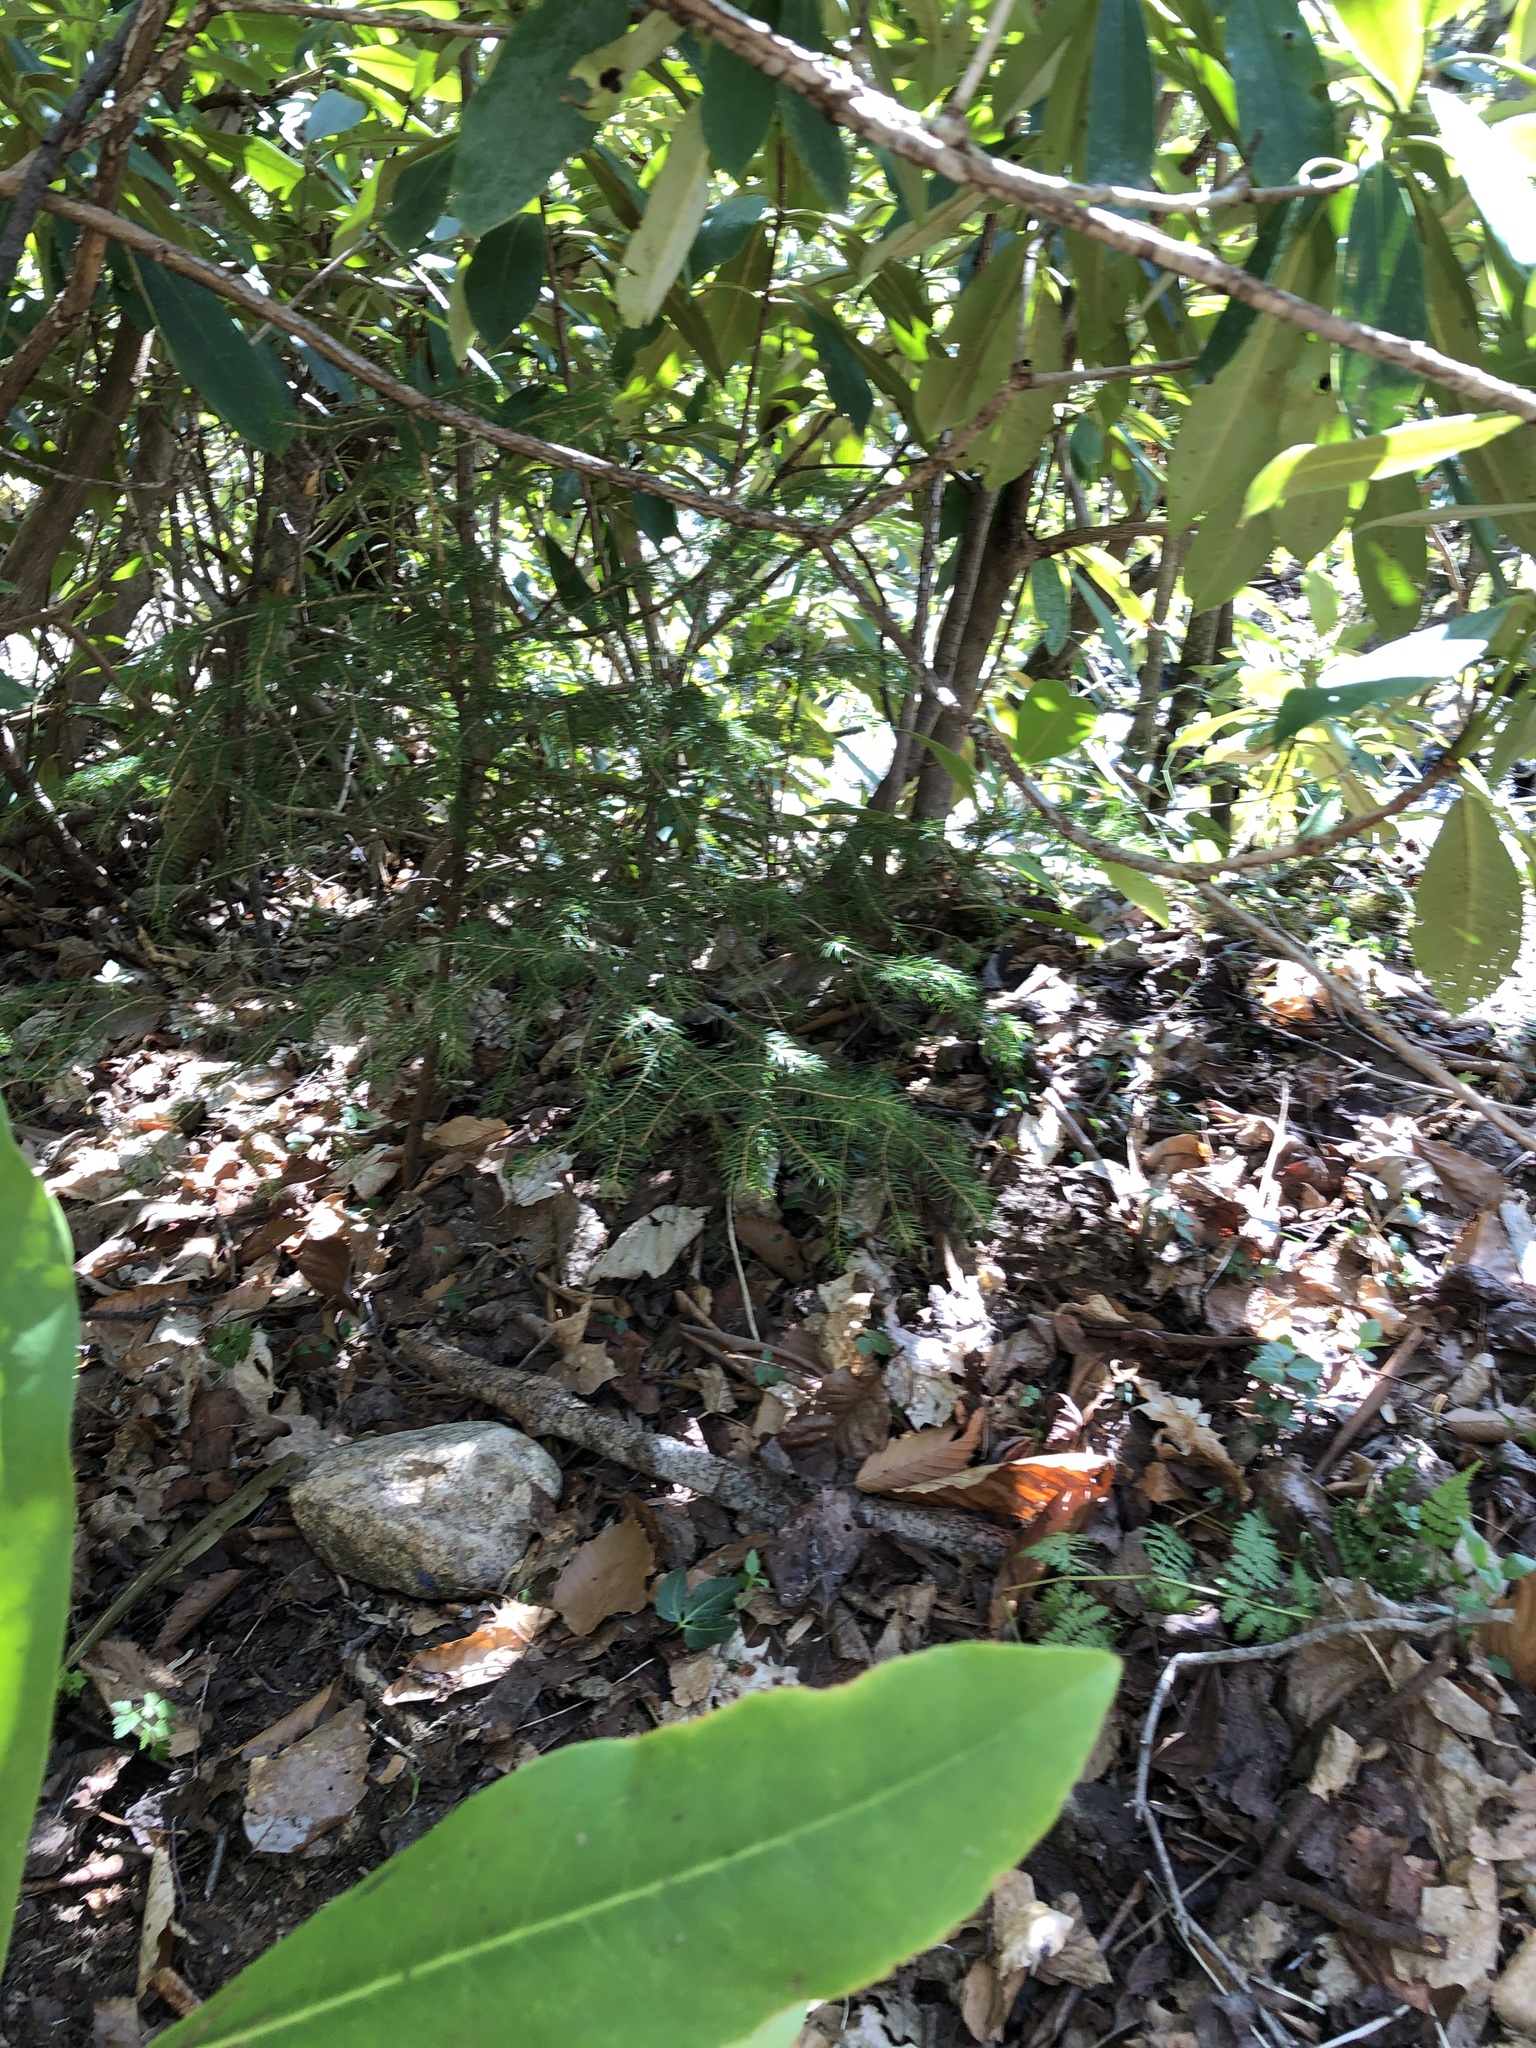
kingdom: Plantae
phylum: Tracheophyta
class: Pinopsida
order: Pinales
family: Pinaceae
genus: Picea
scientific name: Picea rubens
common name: Red spruce
